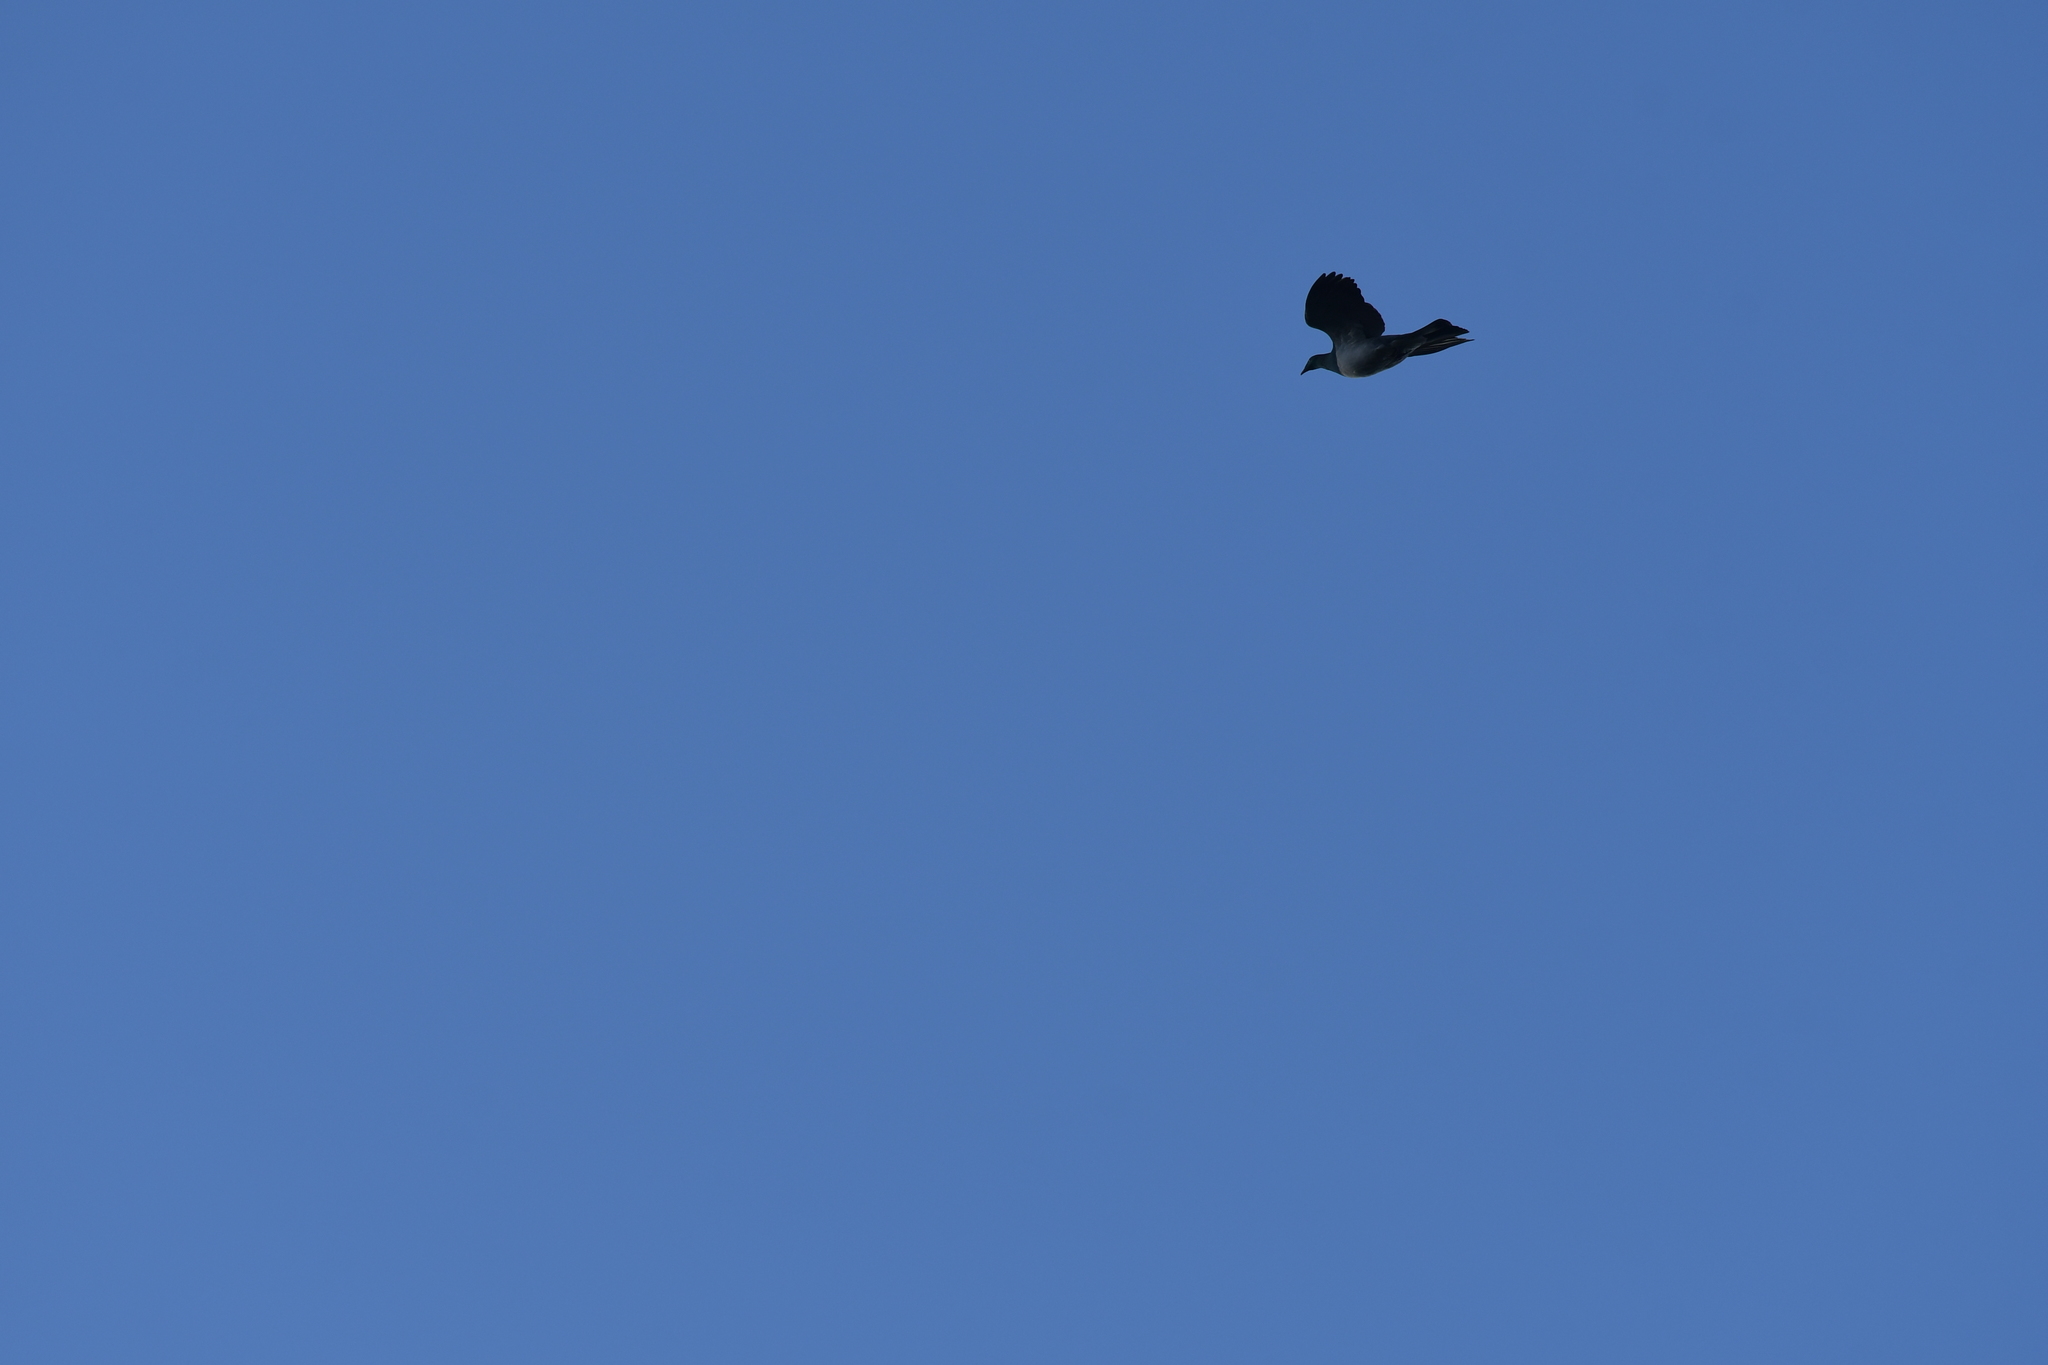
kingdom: Animalia
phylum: Chordata
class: Aves
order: Columbiformes
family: Columbidae
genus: Hemiphaga
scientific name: Hemiphaga novaeseelandiae
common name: New zealand pigeon
